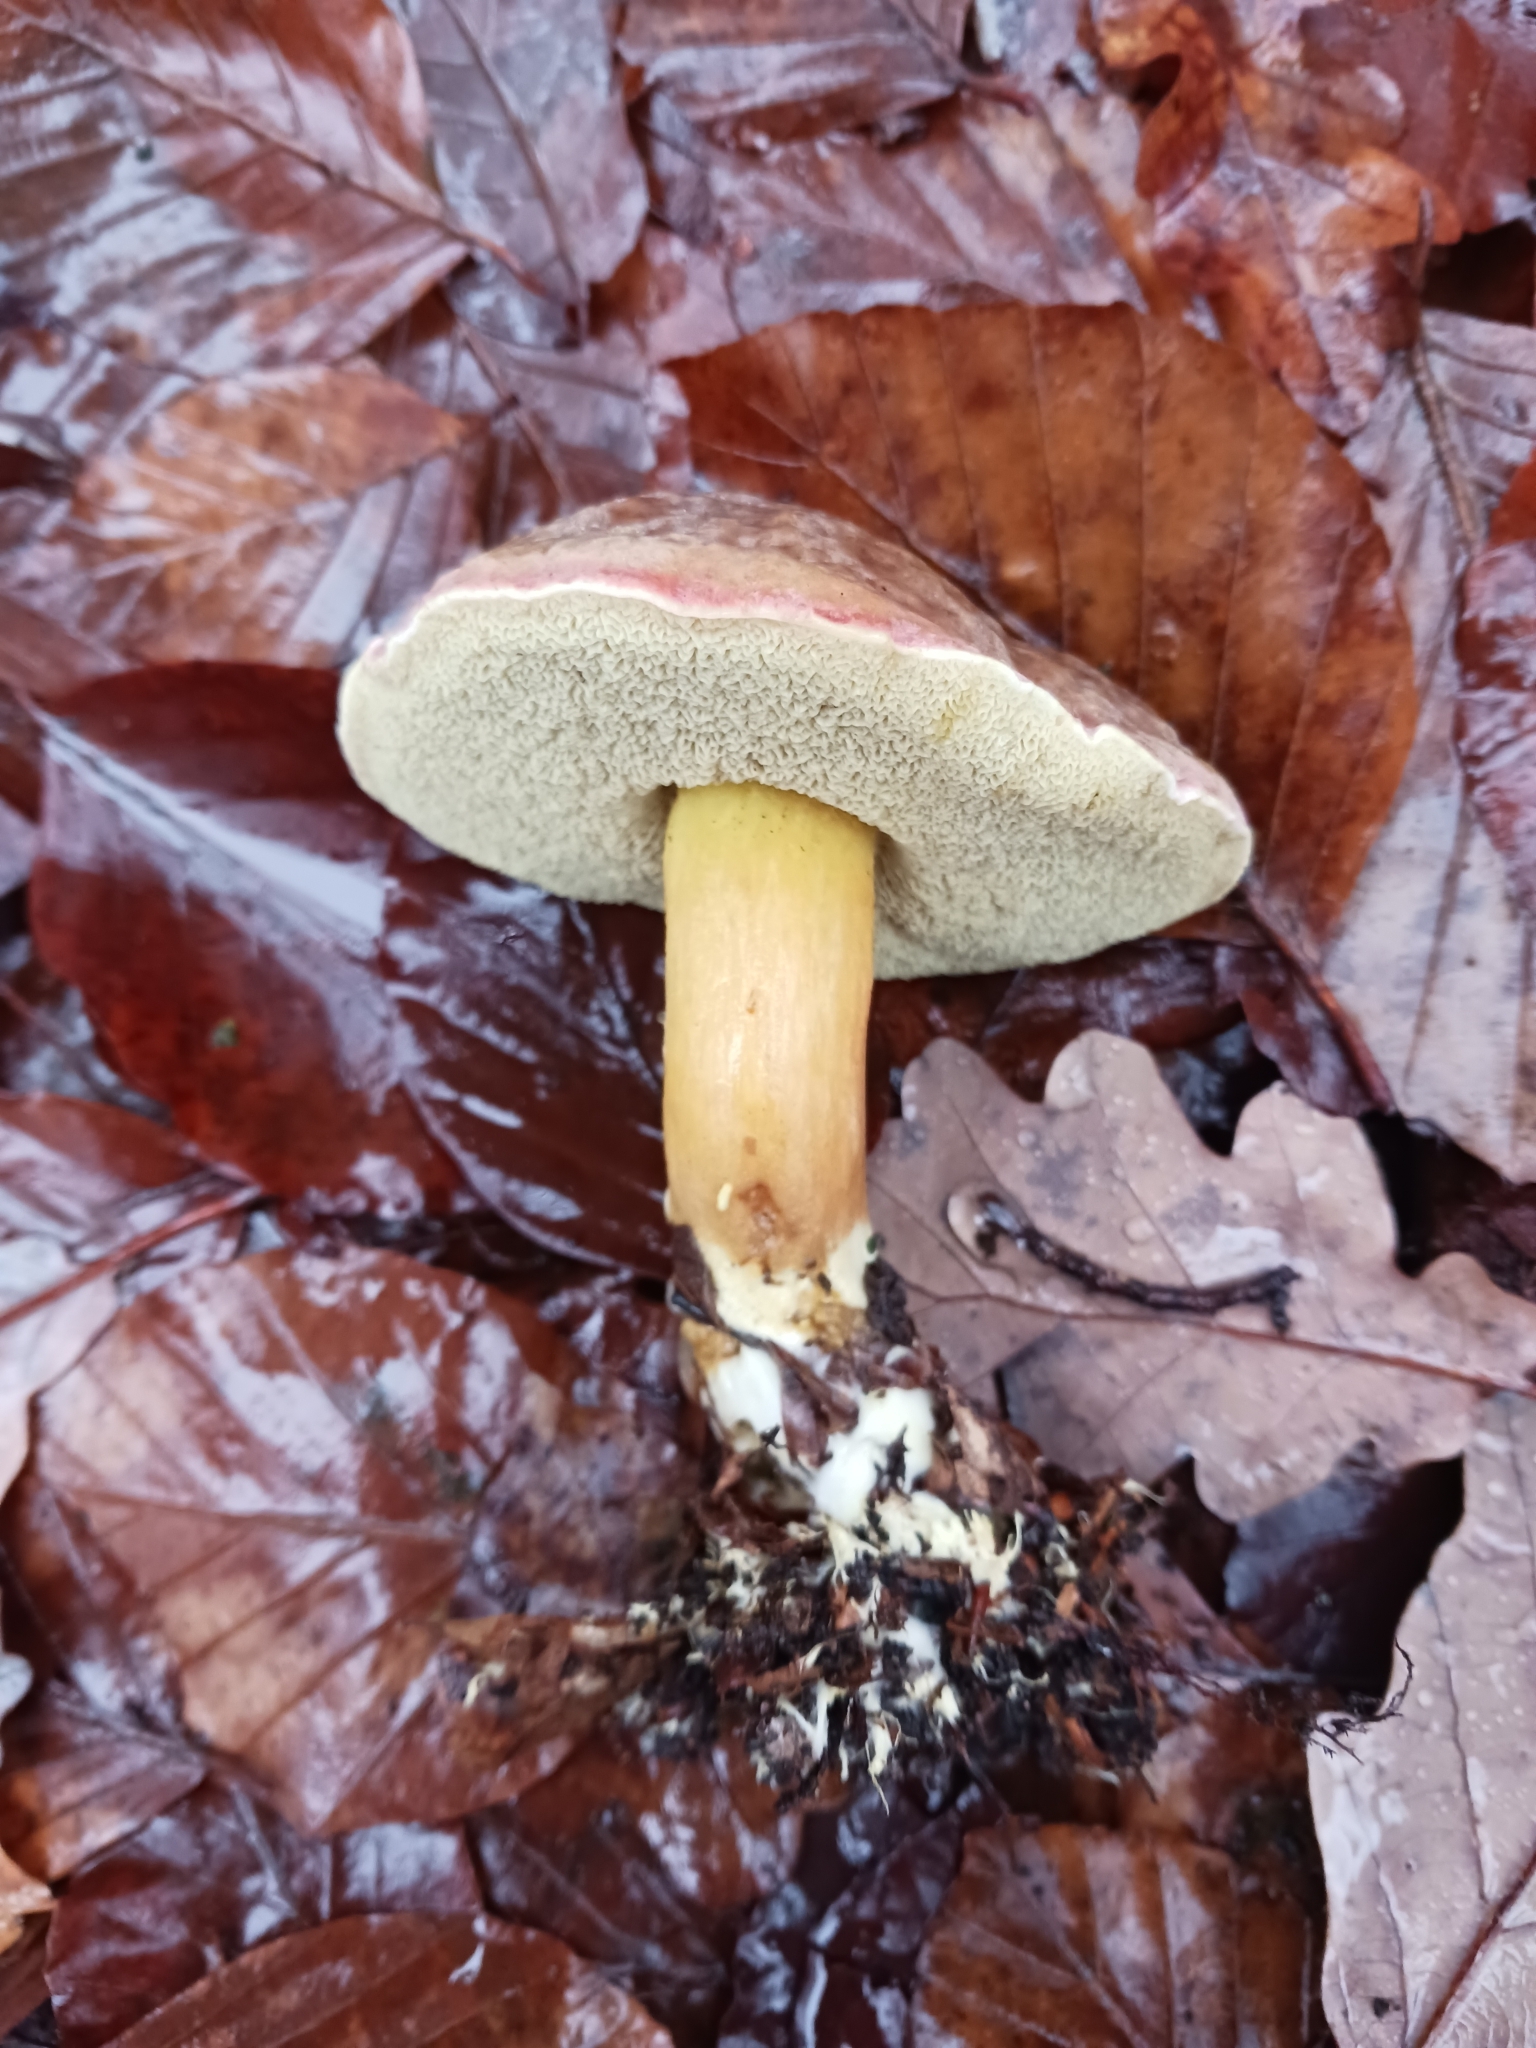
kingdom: Fungi
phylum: Basidiomycota
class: Agaricomycetes
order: Boletales
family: Boletaceae
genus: Xerocomellus
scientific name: Xerocomellus pruinatus
